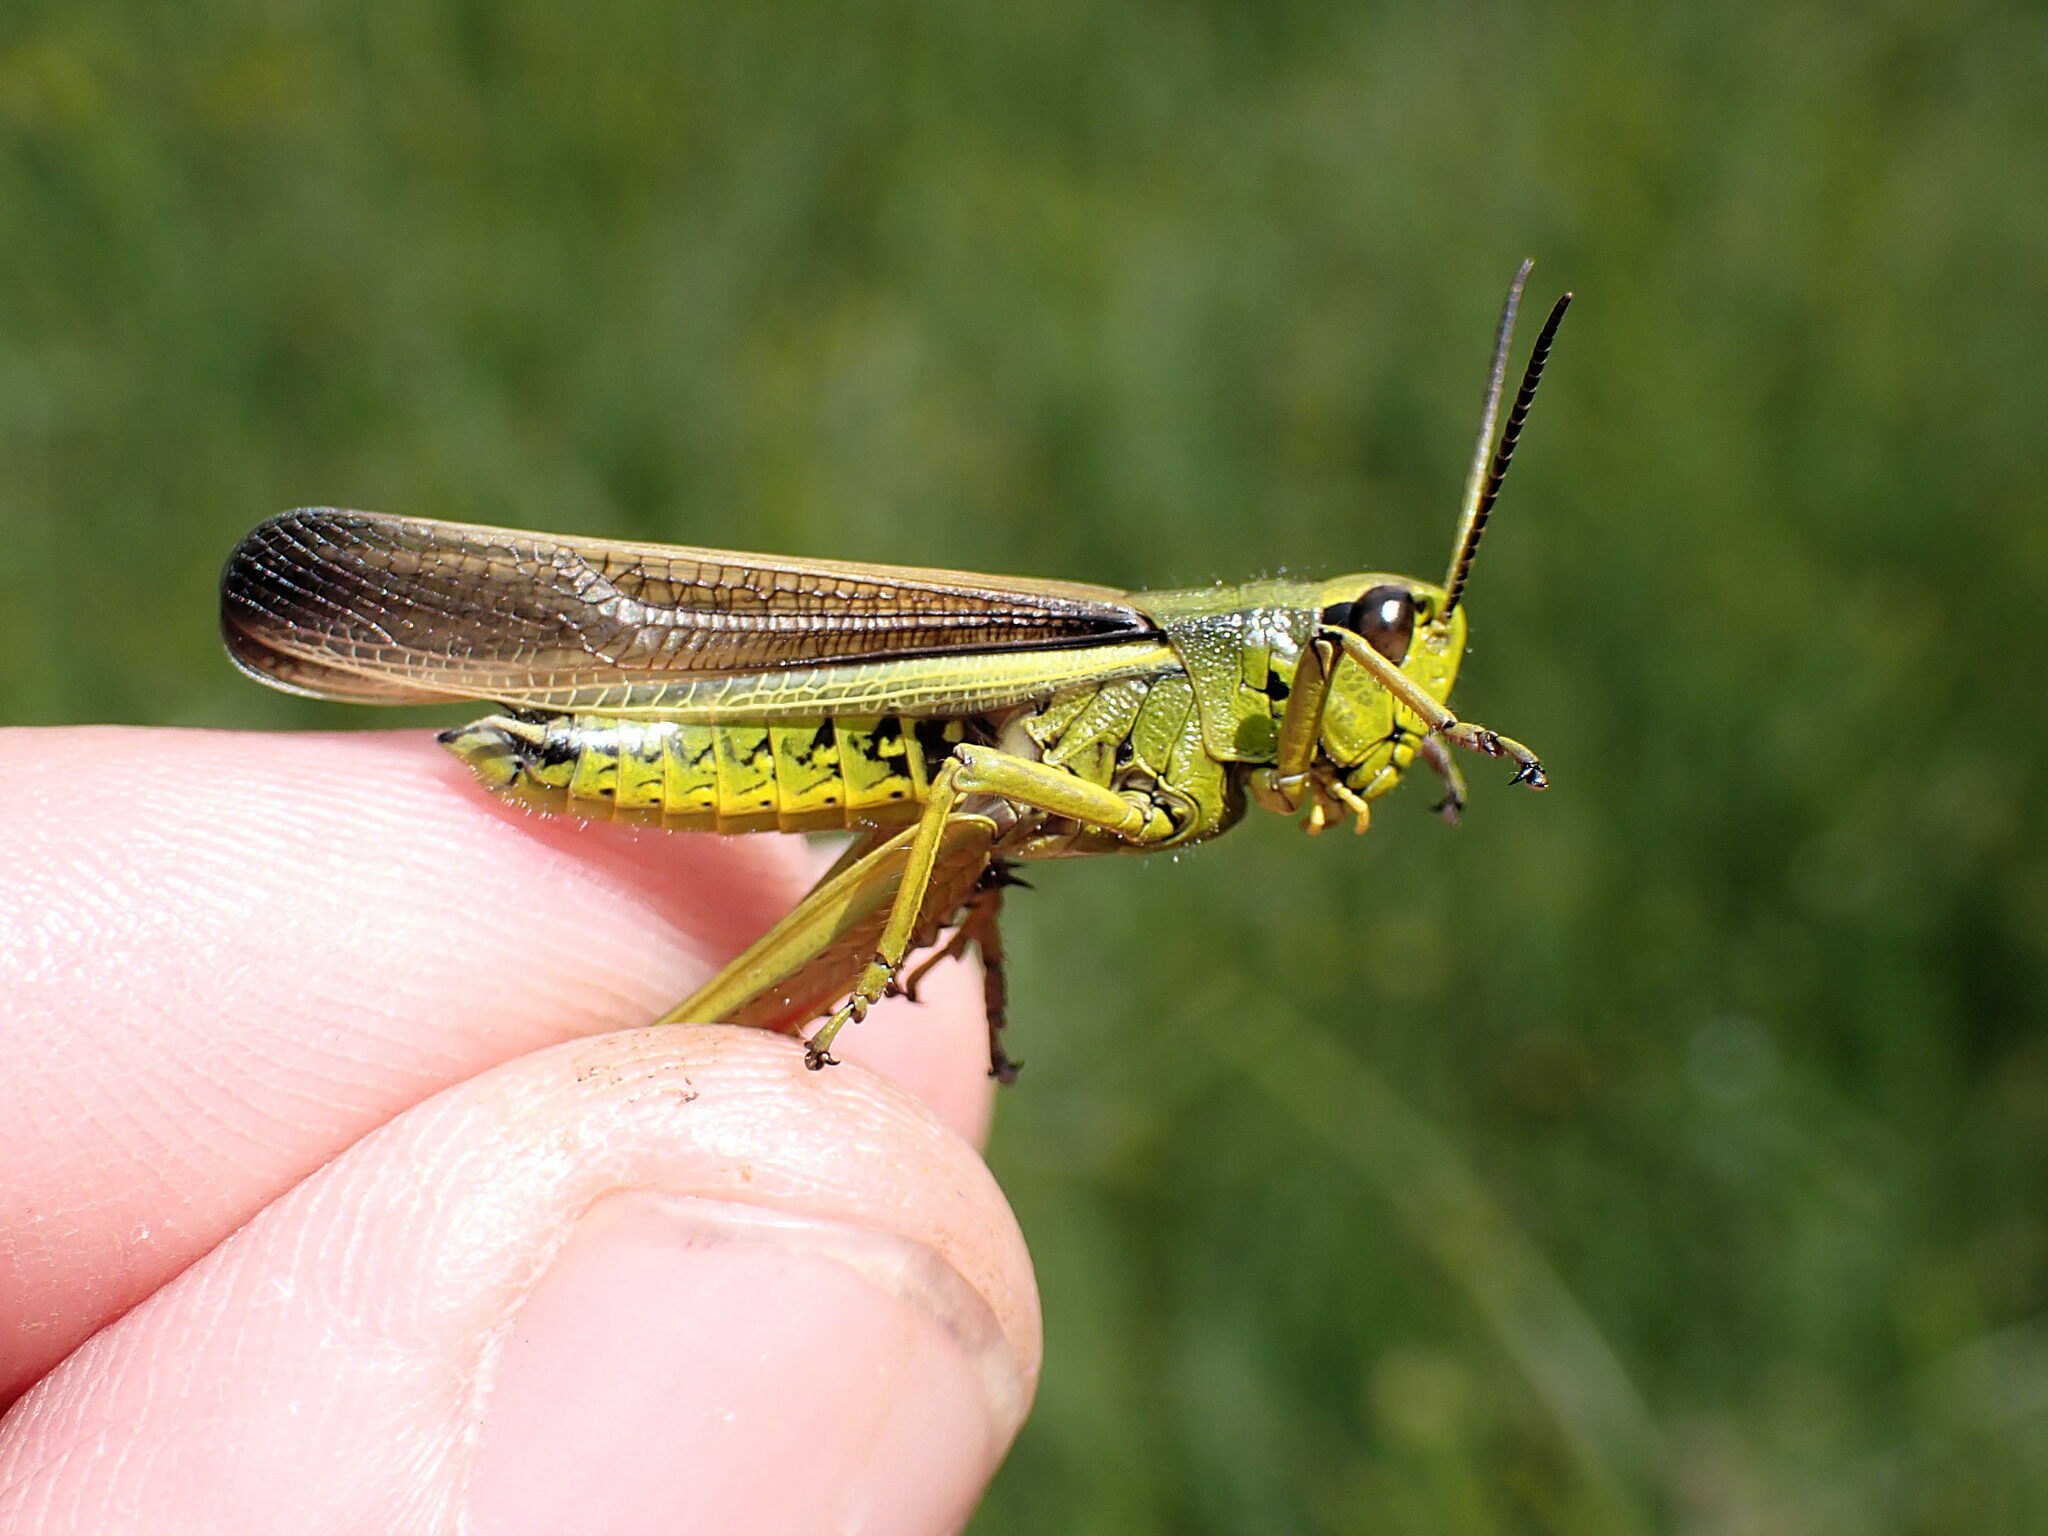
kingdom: Animalia
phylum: Arthropoda
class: Insecta
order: Orthoptera
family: Acrididae
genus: Stethophyma
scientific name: Stethophyma grossum
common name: Large marsh grasshopper
